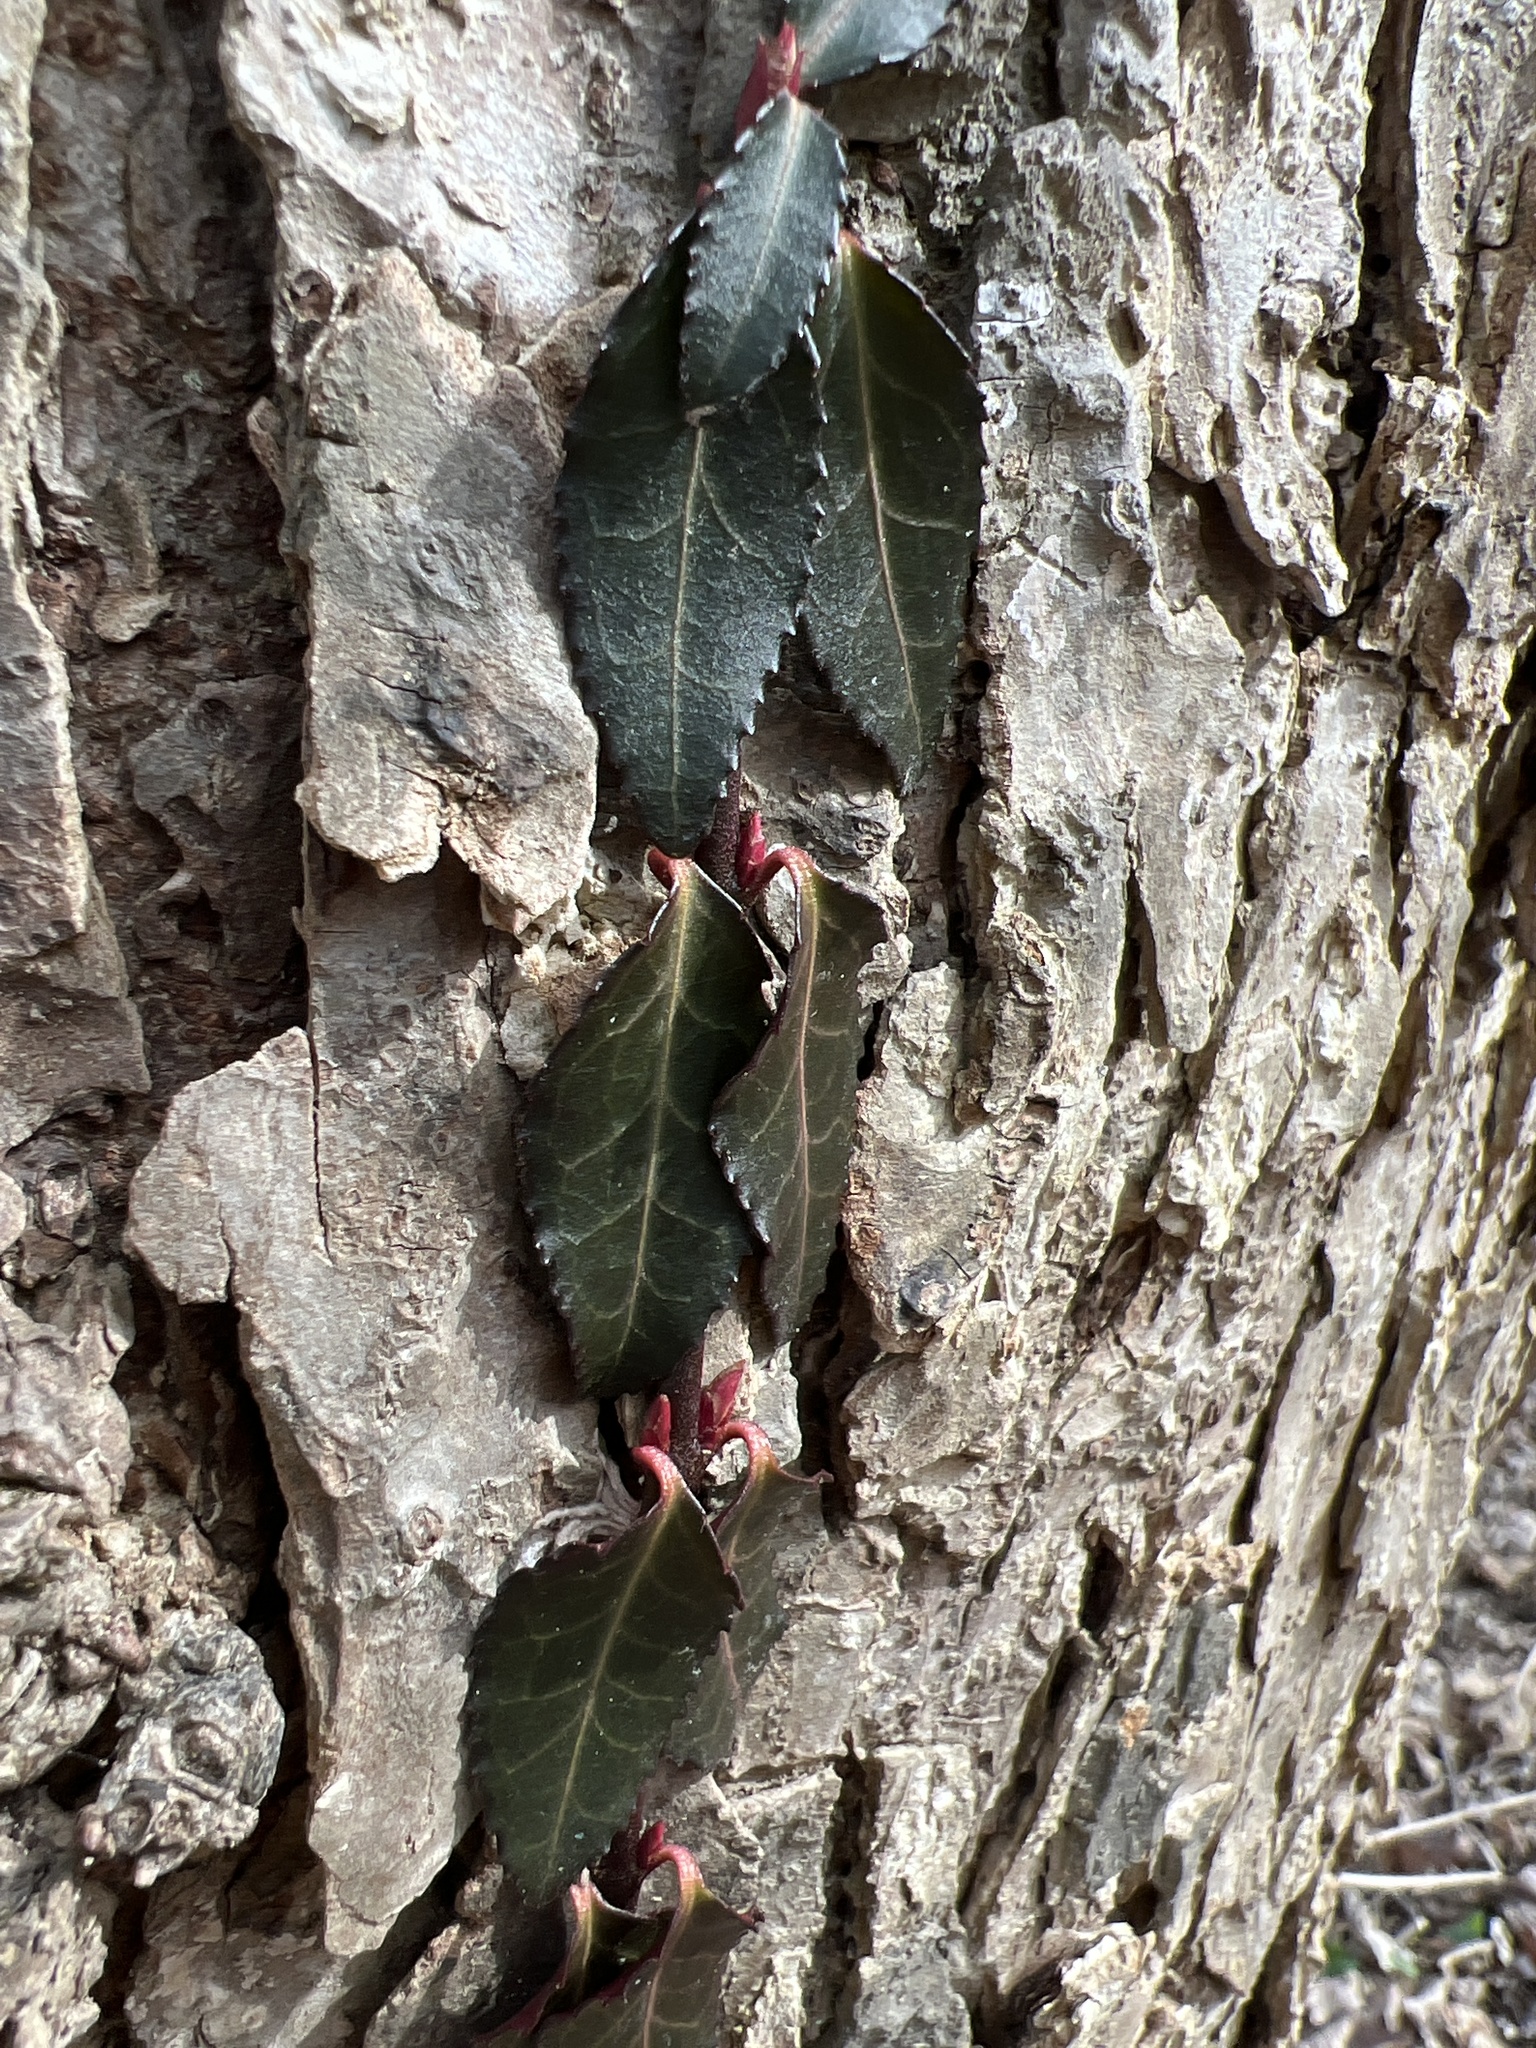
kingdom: Plantae
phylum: Tracheophyta
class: Magnoliopsida
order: Celastrales
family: Celastraceae
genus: Euonymus
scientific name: Euonymus fortunei
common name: Climbing euonymus
